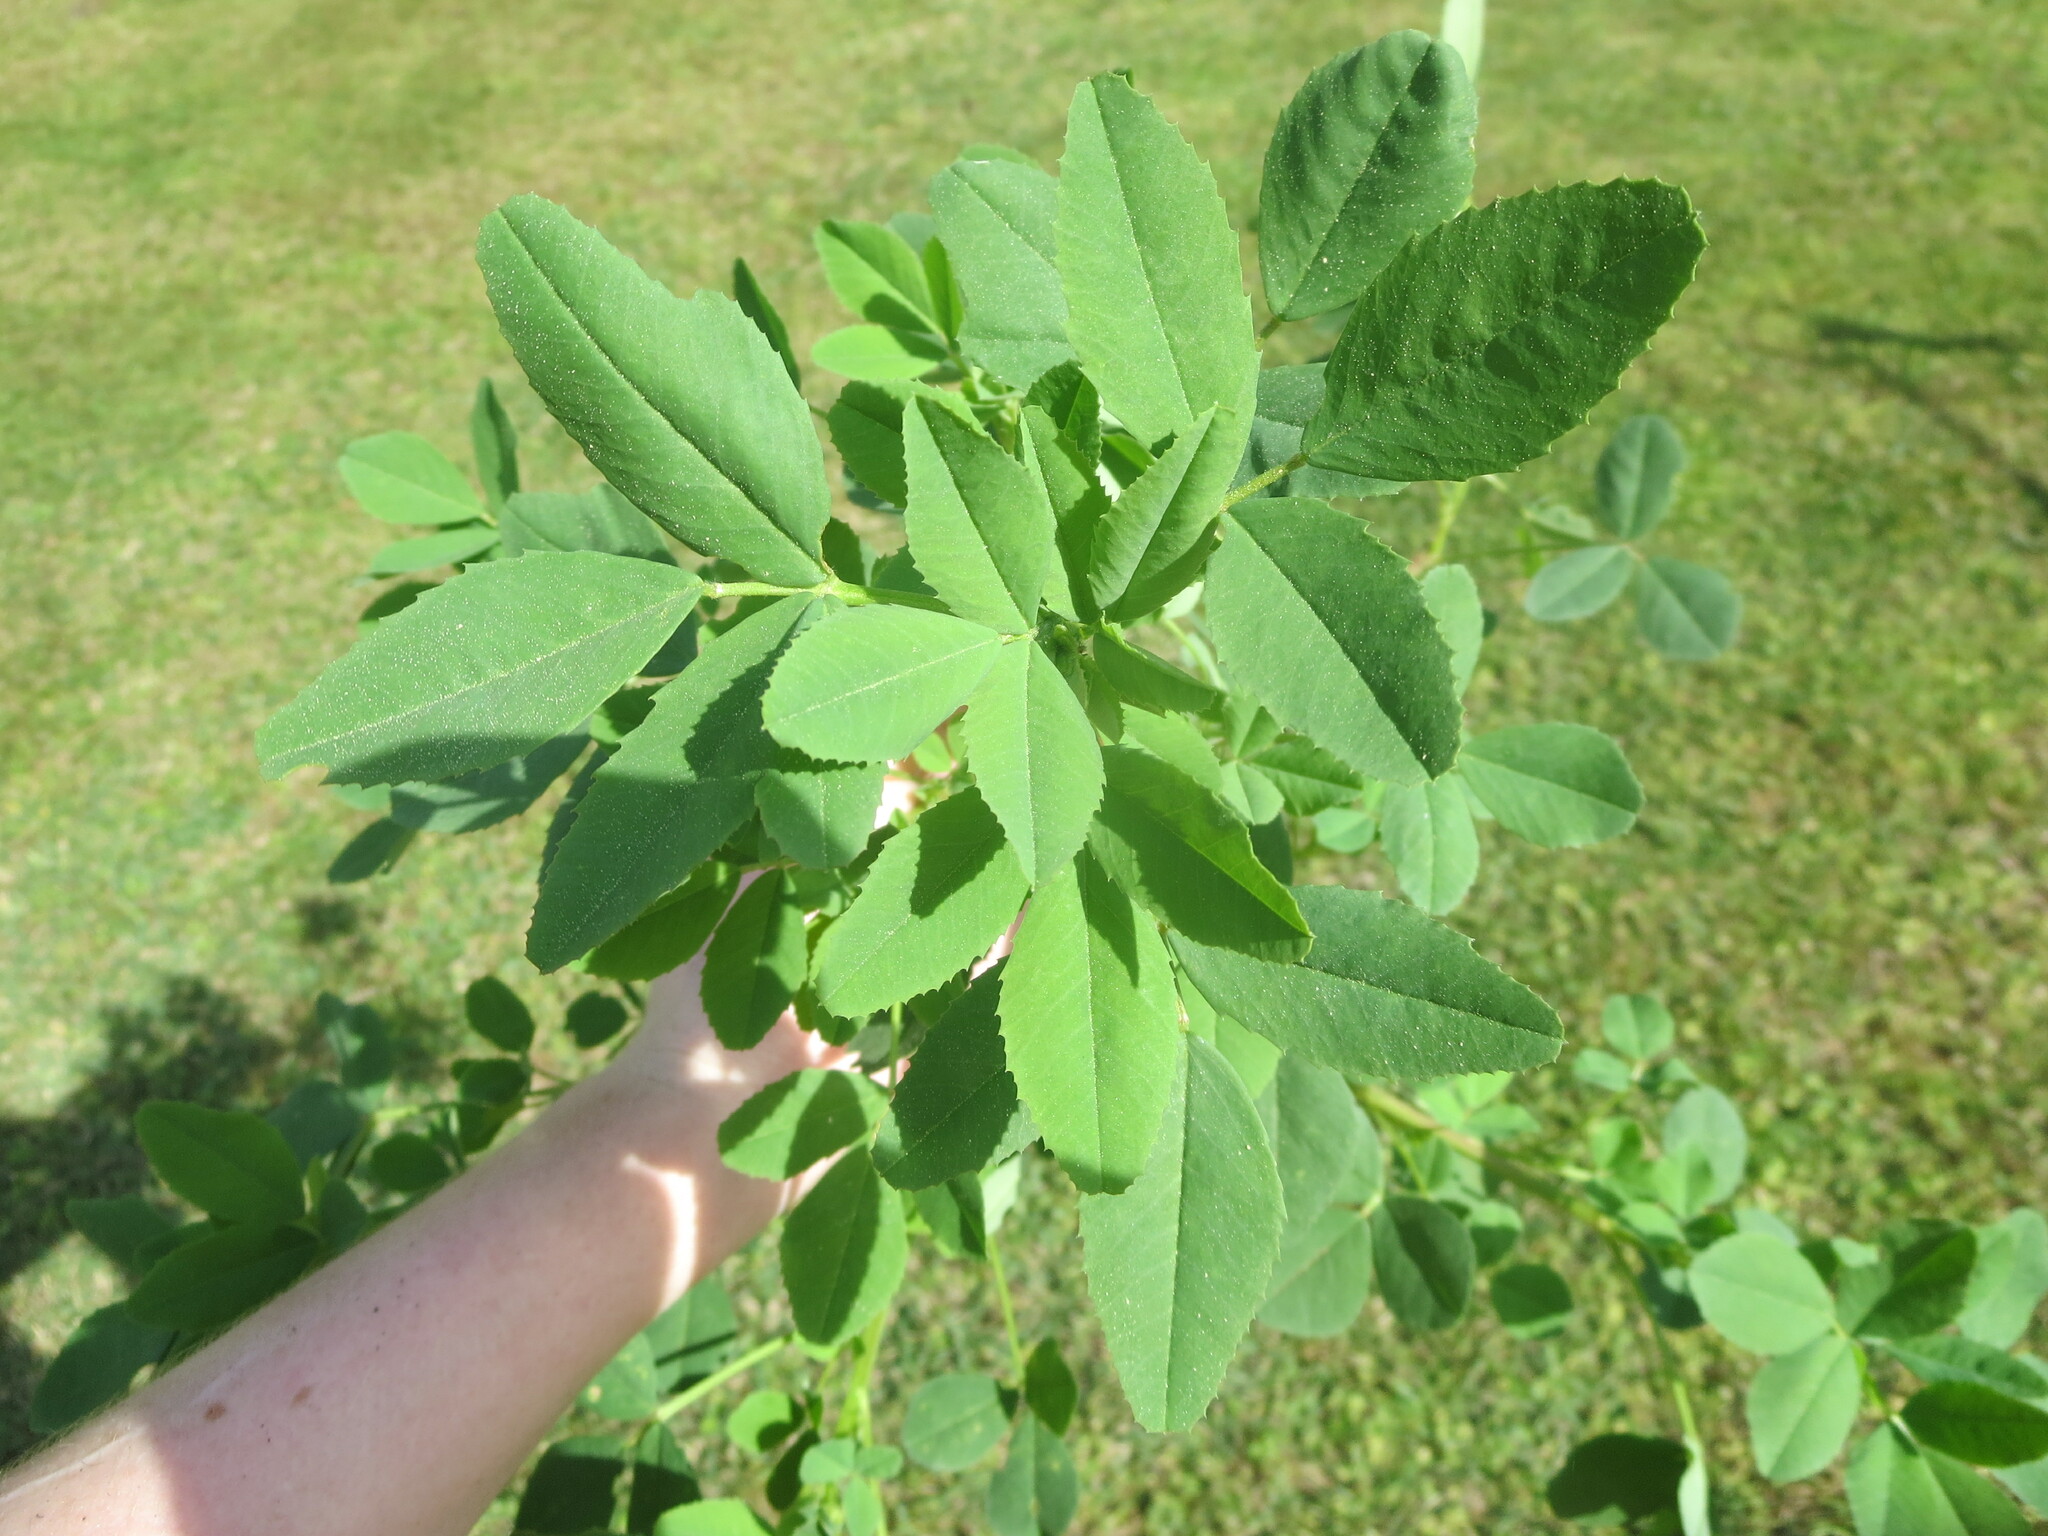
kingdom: Plantae
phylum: Tracheophyta
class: Magnoliopsida
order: Fabales
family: Fabaceae
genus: Melilotus
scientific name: Melilotus albus
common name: White melilot
